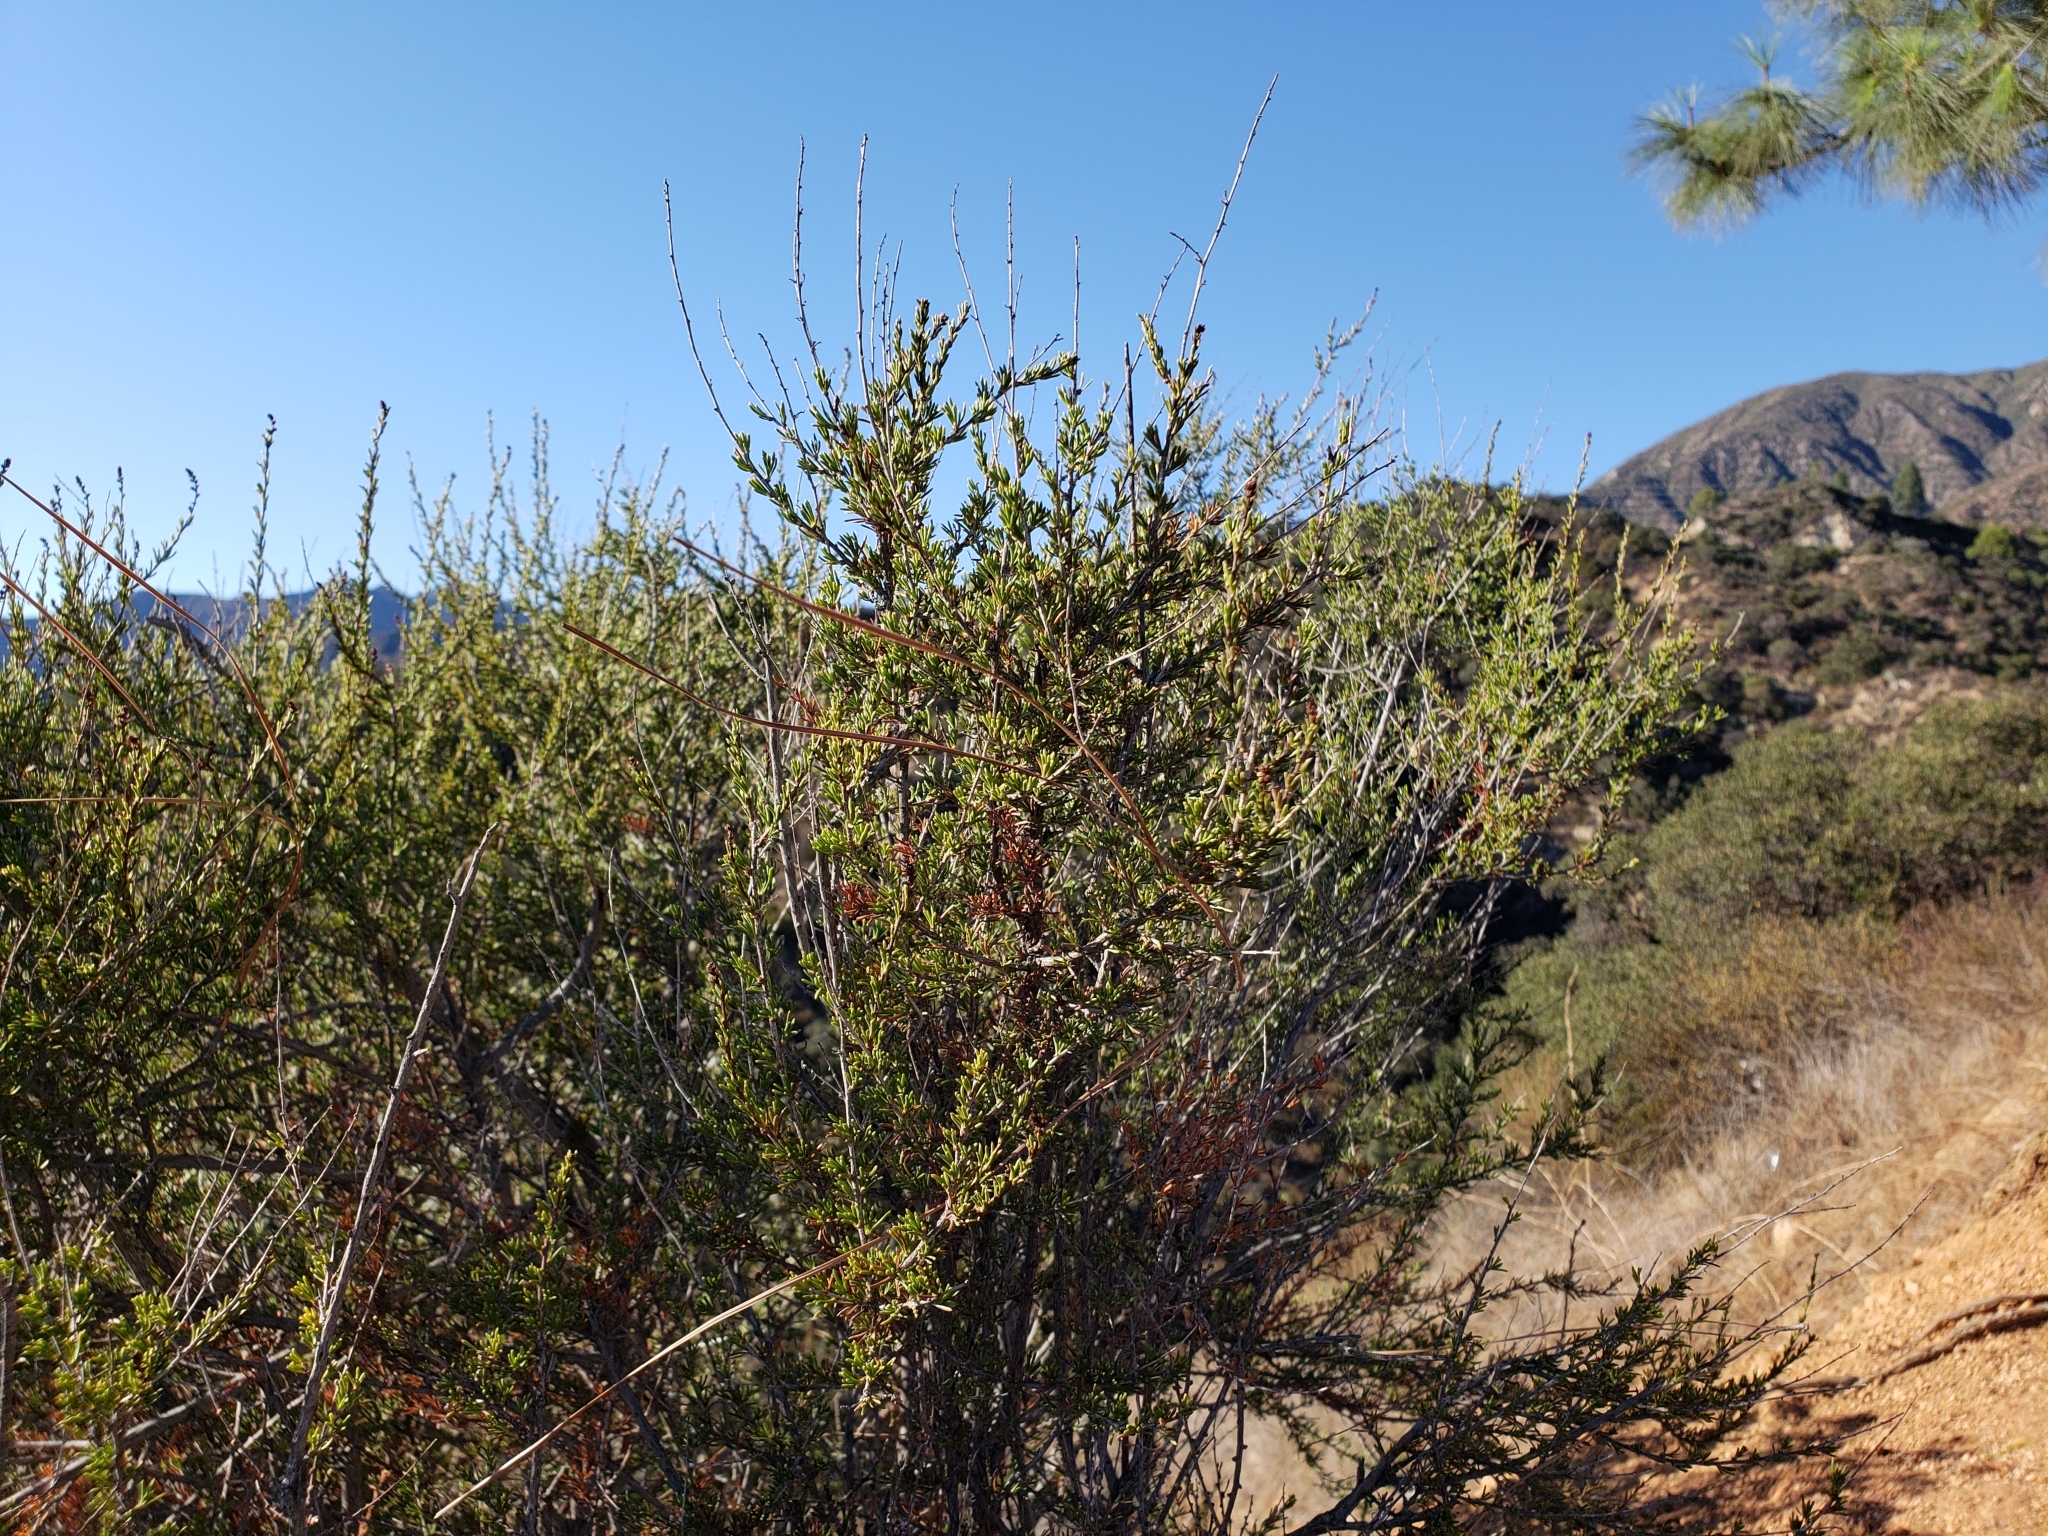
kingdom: Plantae
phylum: Tracheophyta
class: Magnoliopsida
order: Rosales
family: Rosaceae
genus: Adenostoma
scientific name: Adenostoma fasciculatum
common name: Chamise
